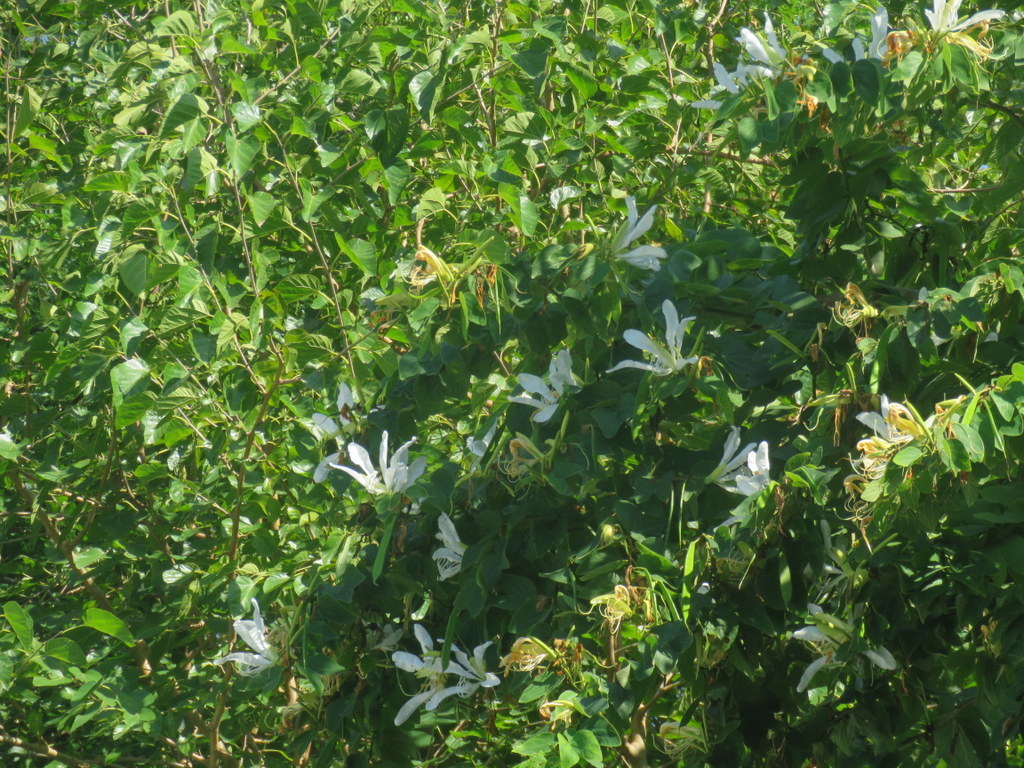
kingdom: Plantae
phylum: Tracheophyta
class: Magnoliopsida
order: Fabales
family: Fabaceae
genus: Bauhinia
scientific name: Bauhinia forficata
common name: Orchid tree
